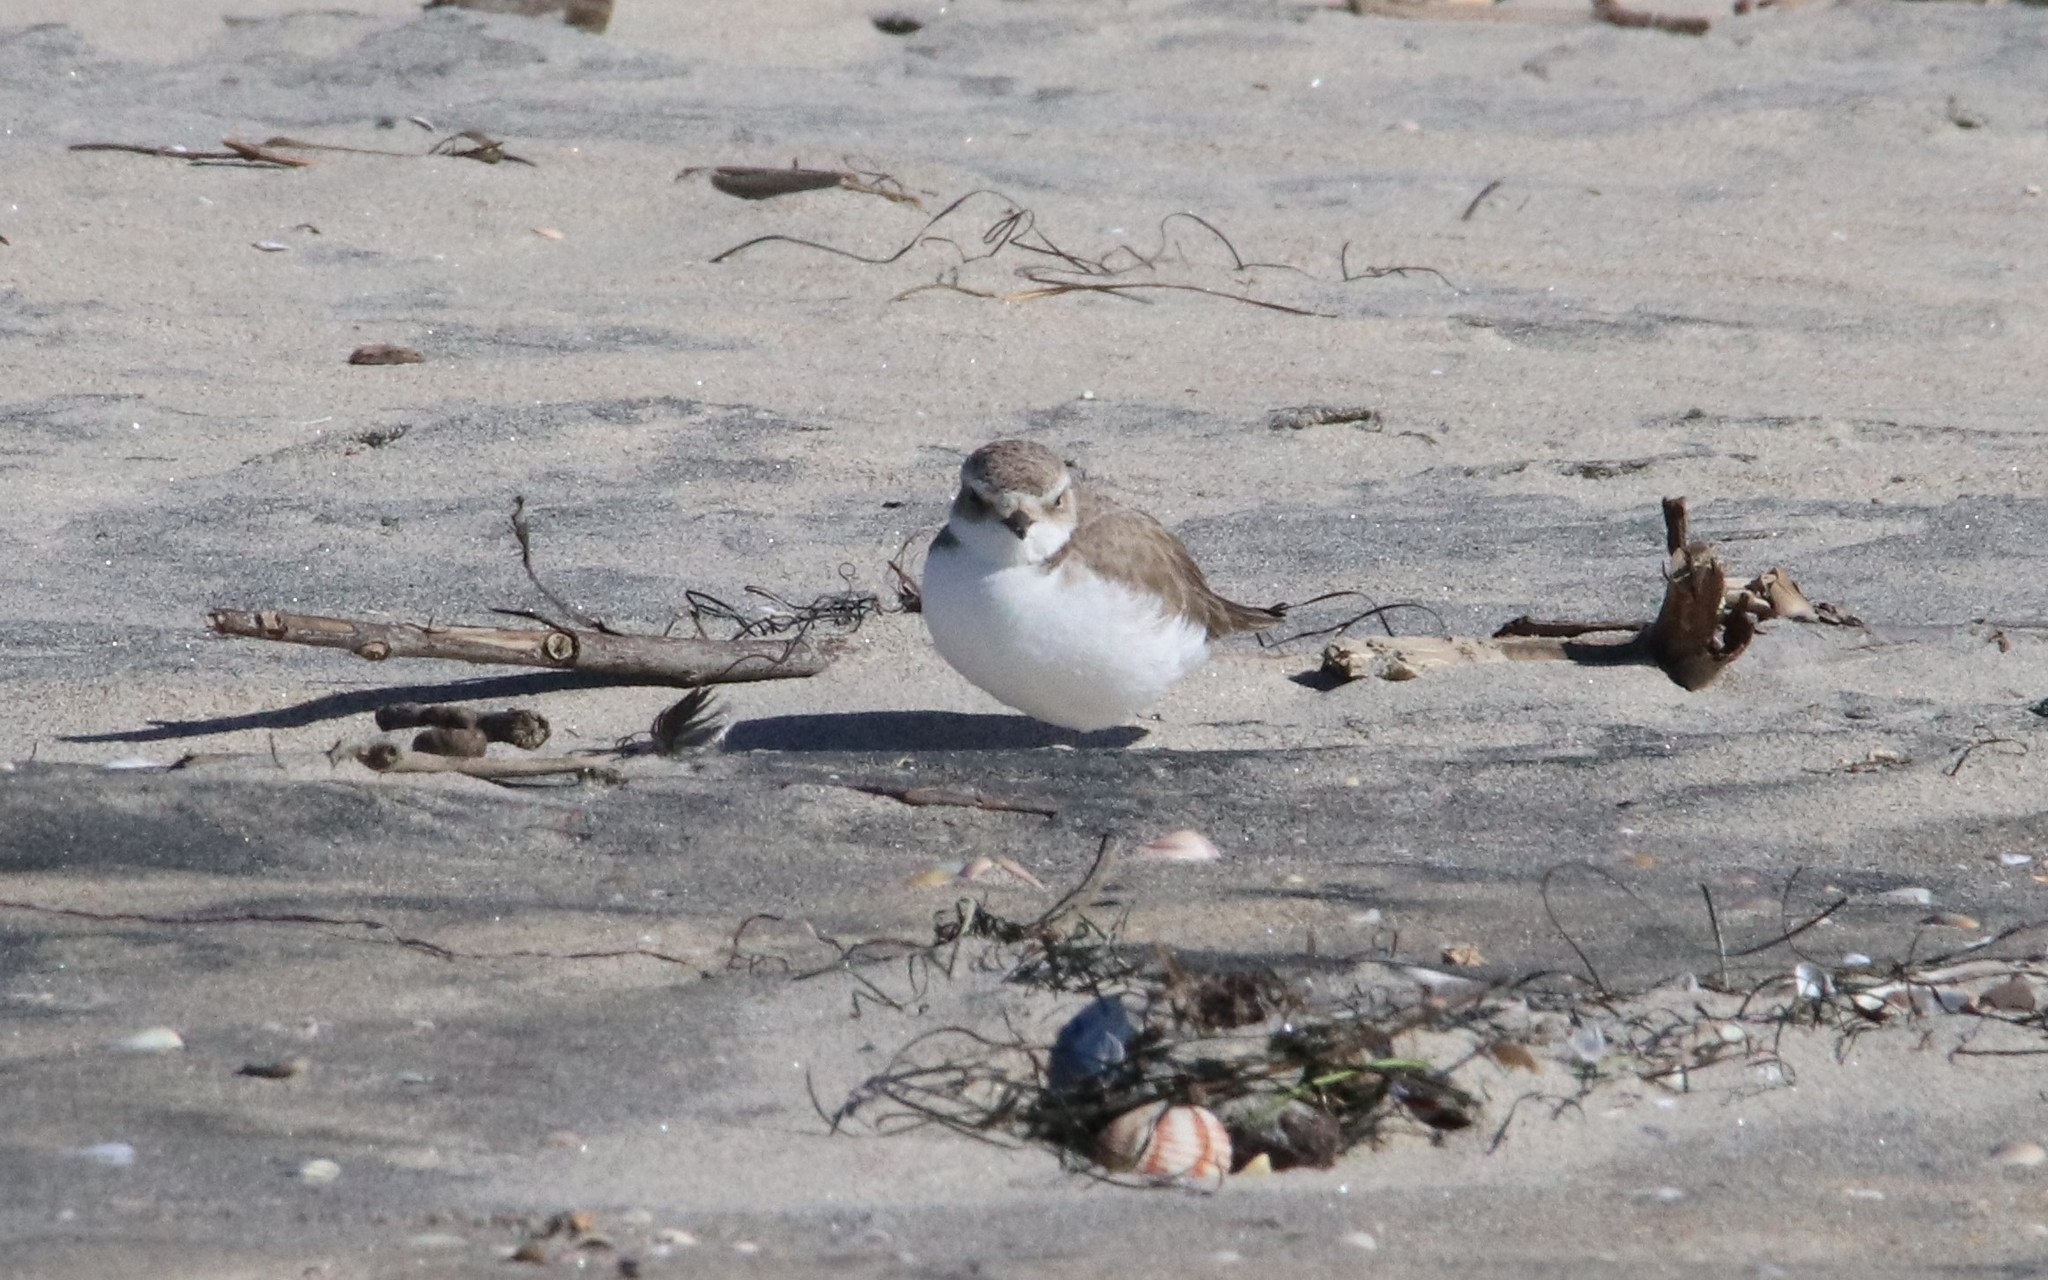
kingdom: Animalia
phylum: Chordata
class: Aves
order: Charadriiformes
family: Charadriidae
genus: Anarhynchus
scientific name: Anarhynchus
